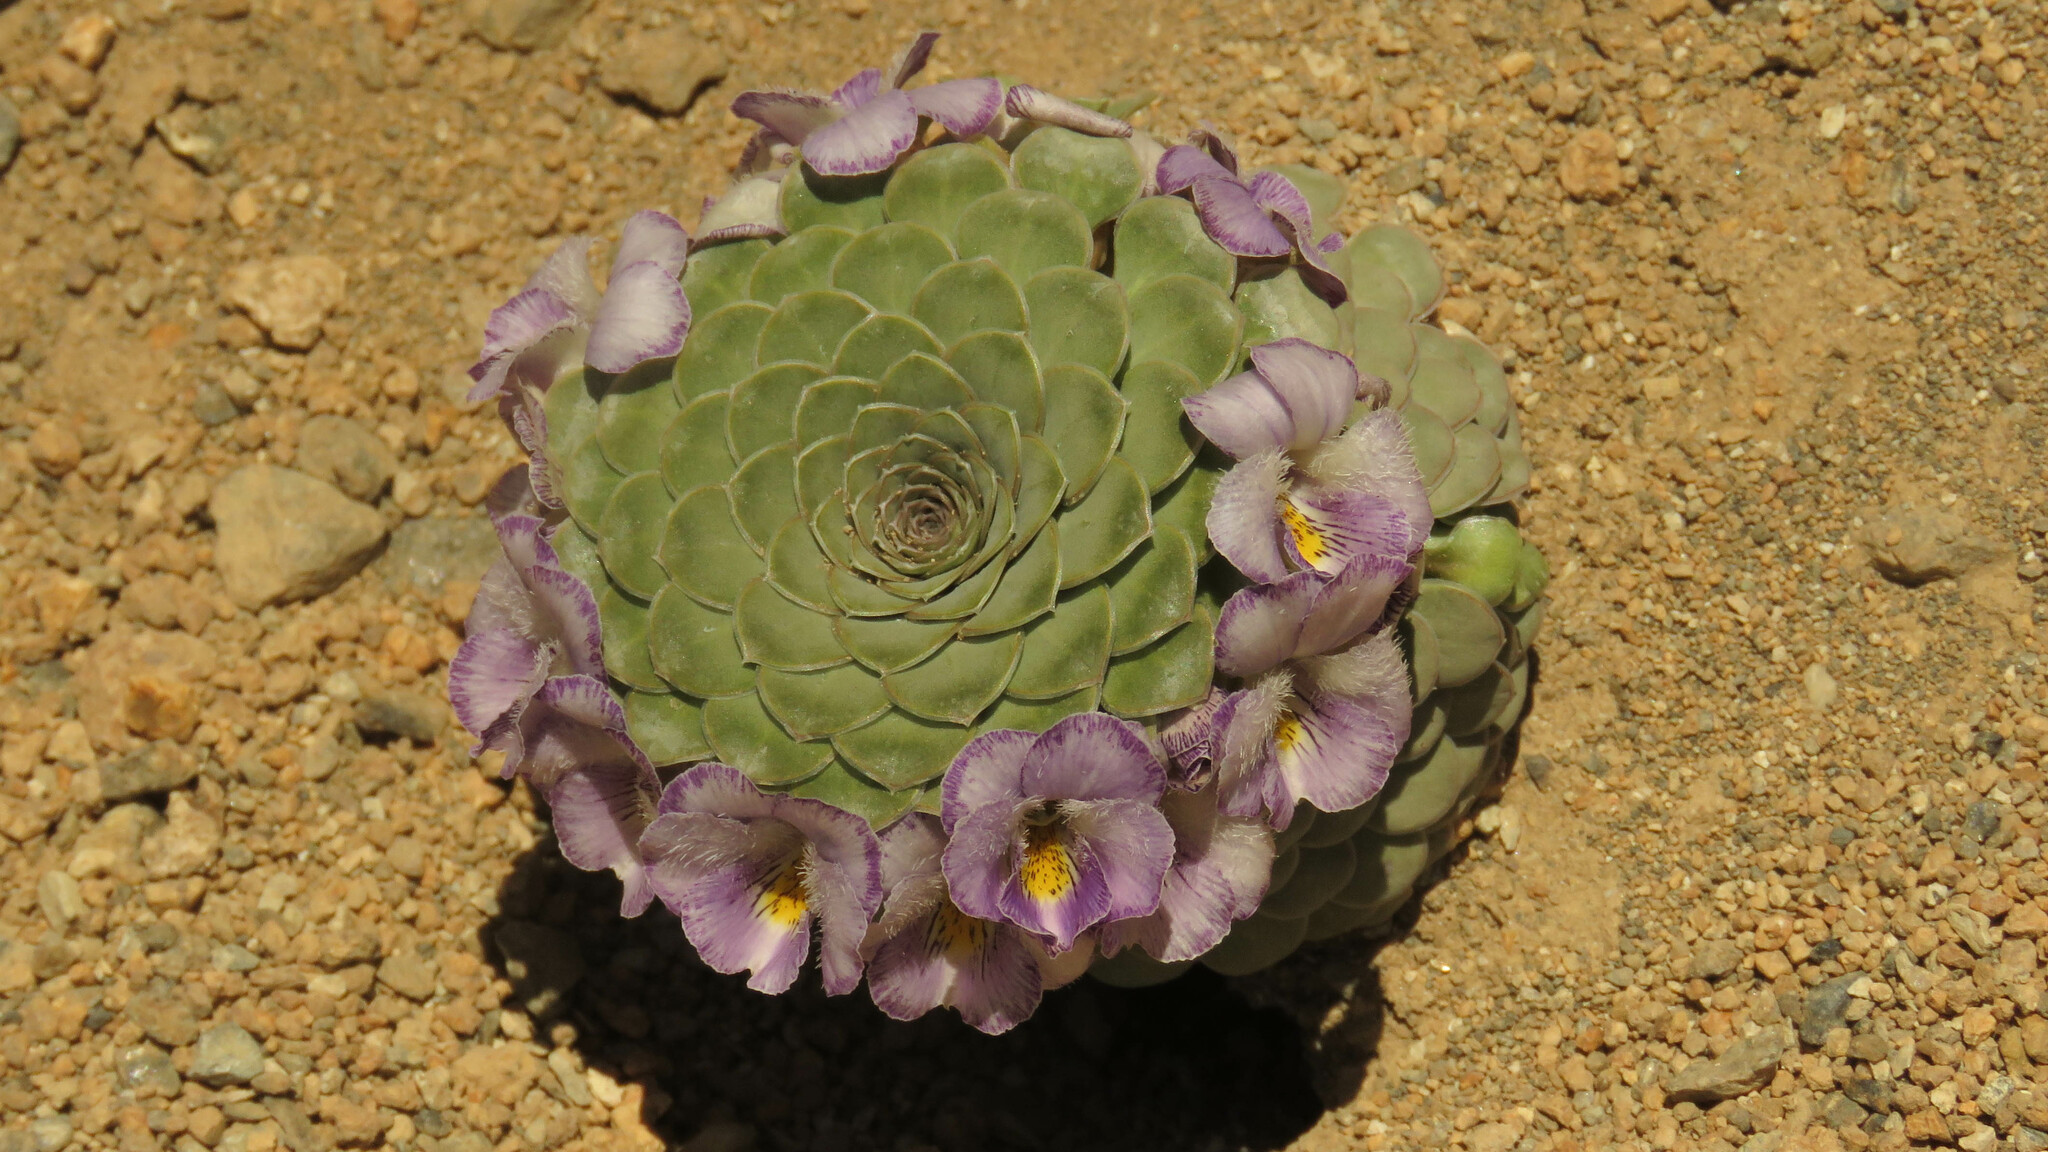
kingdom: Plantae
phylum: Tracheophyta
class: Magnoliopsida
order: Malpighiales
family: Violaceae
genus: Viola
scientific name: Viola petraea
